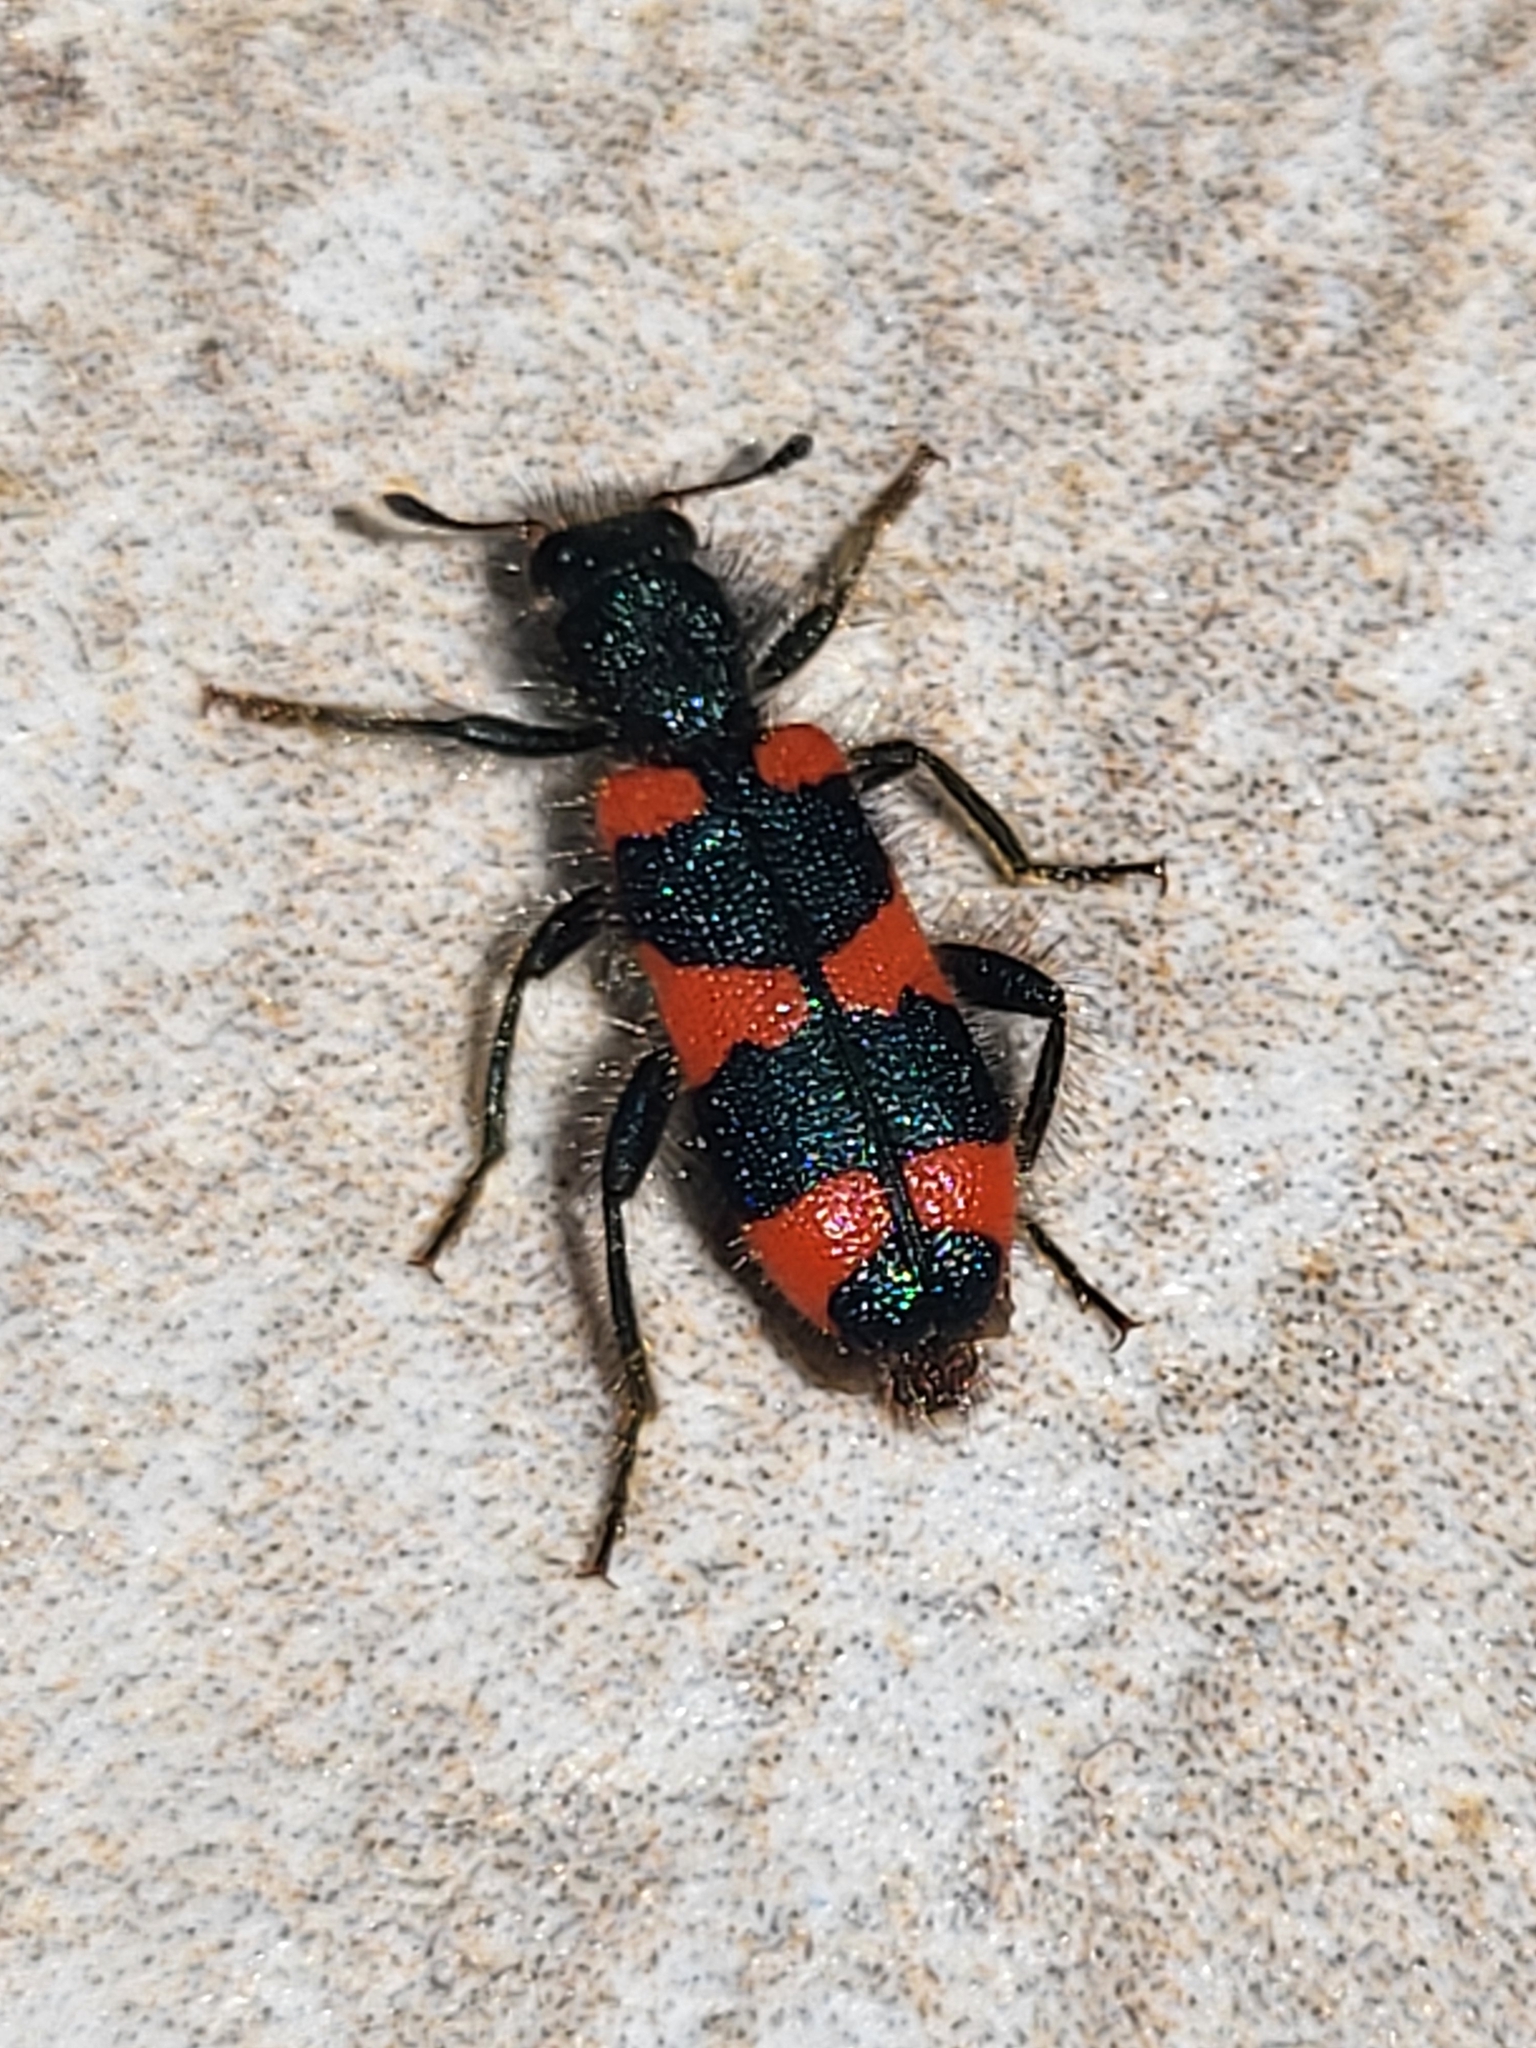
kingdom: Animalia
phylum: Arthropoda
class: Insecta
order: Coleoptera
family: Cleridae
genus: Trichodes
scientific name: Trichodes favarius
